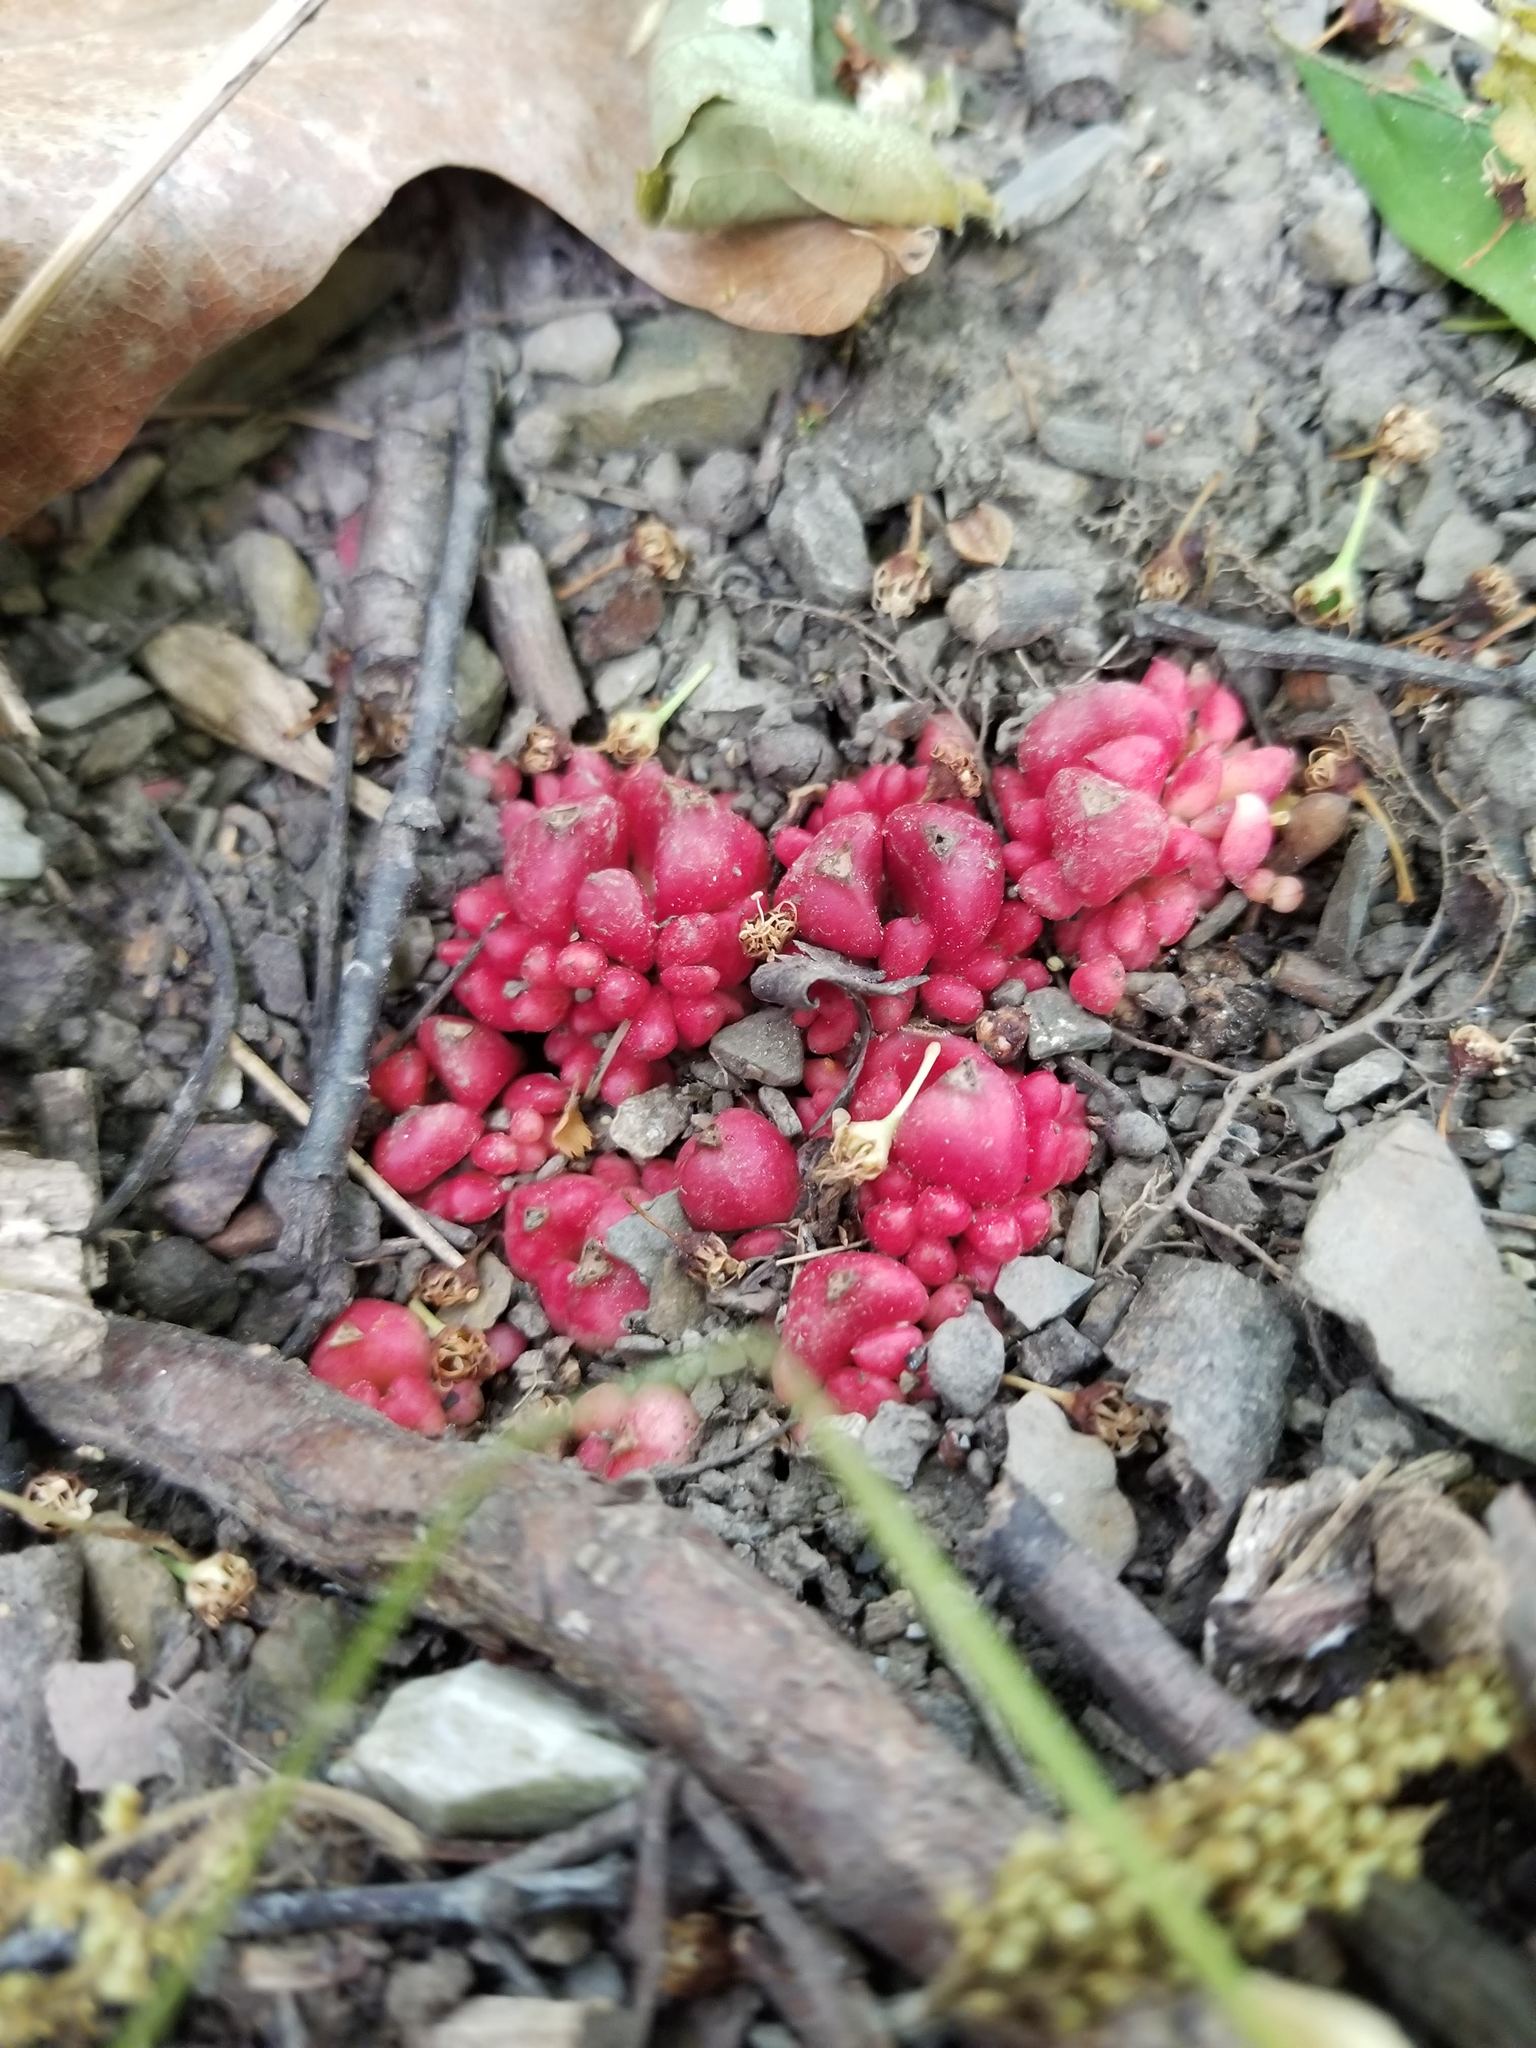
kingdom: Plantae
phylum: Tracheophyta
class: Magnoliopsida
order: Ranunculales
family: Papaveraceae
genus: Dicentra
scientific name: Dicentra cucullaria
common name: Dutchman's breeches
